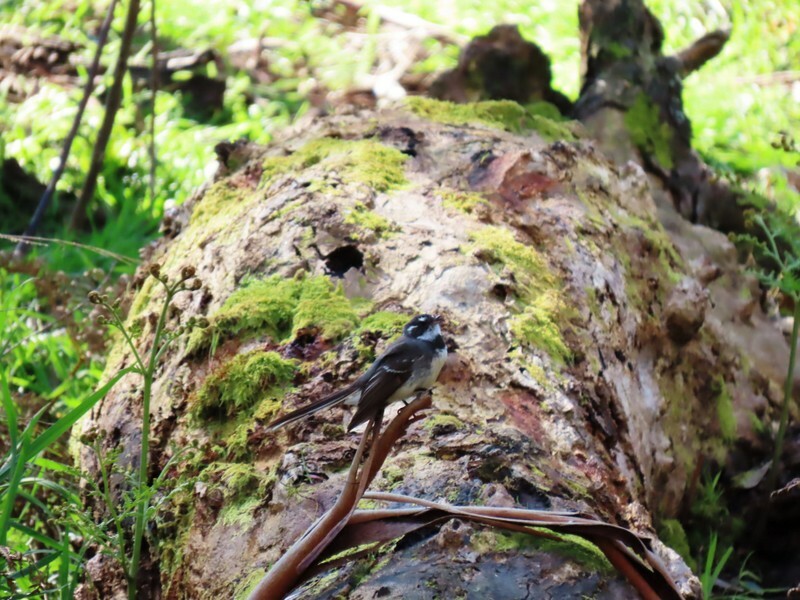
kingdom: Animalia
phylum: Chordata
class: Aves
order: Passeriformes
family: Rhipiduridae
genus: Rhipidura
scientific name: Rhipidura albiscapa
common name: Grey fantail
